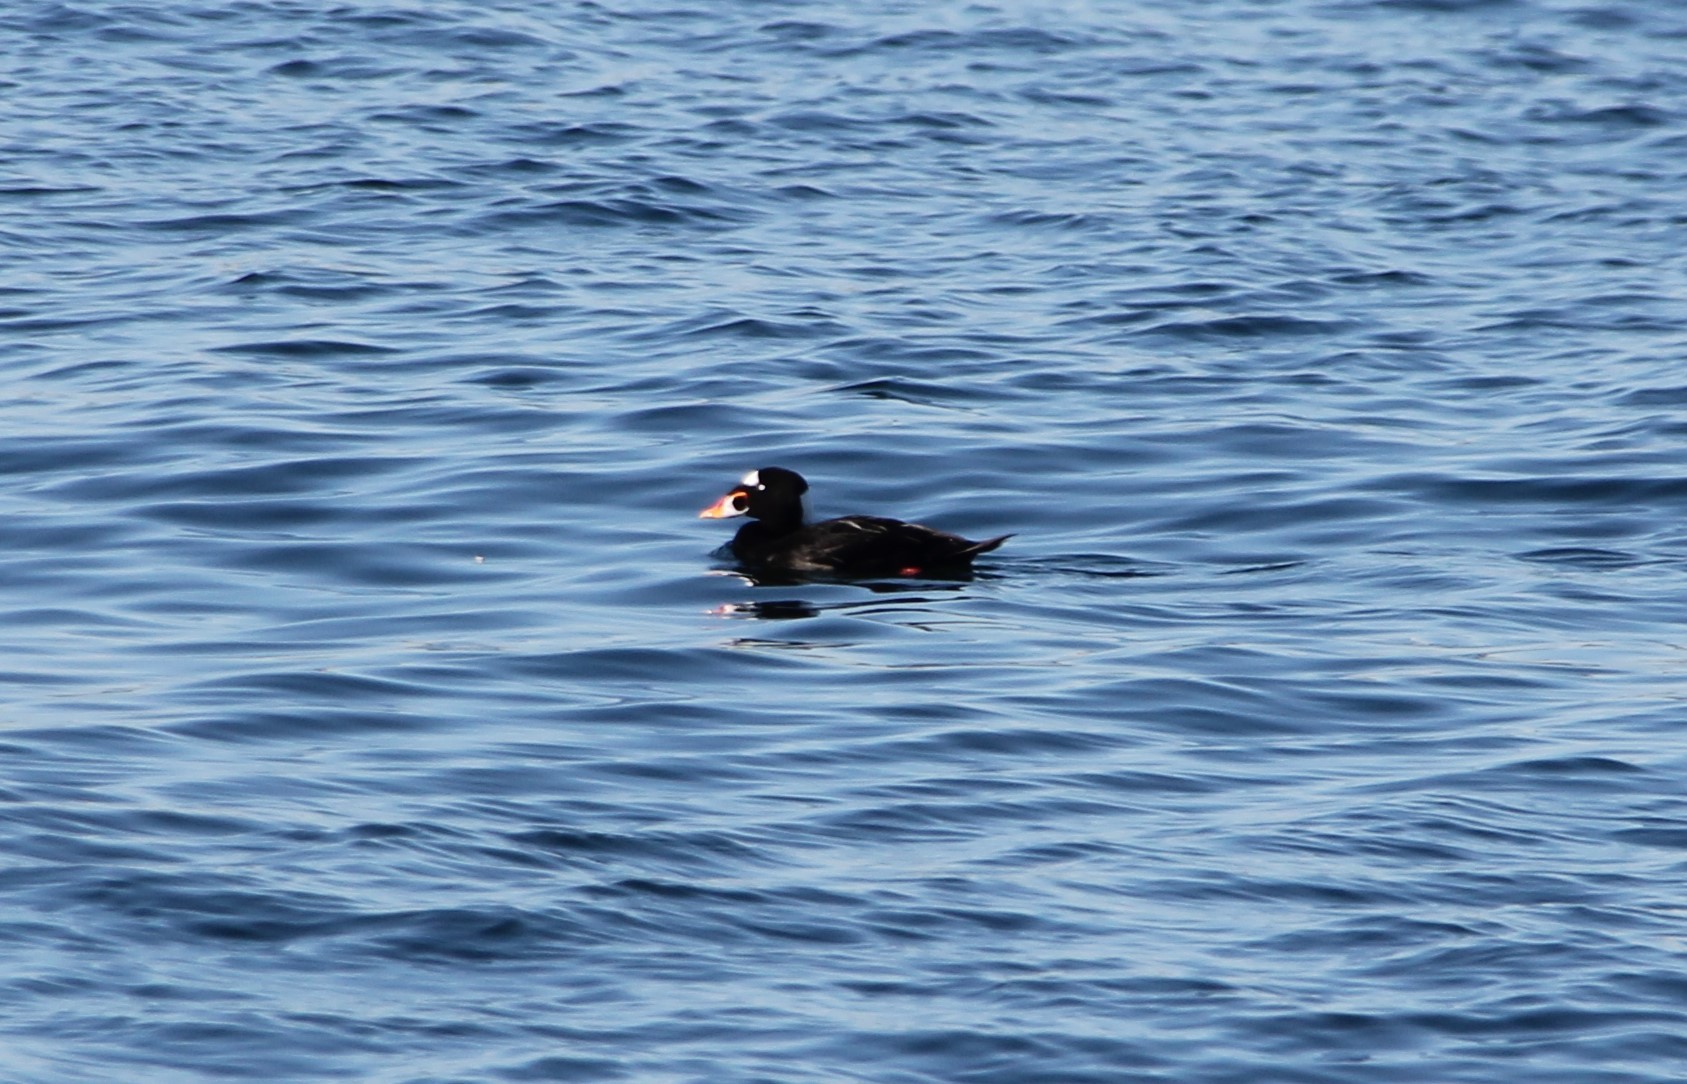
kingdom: Animalia
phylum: Chordata
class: Aves
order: Anseriformes
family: Anatidae
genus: Melanitta
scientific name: Melanitta perspicillata
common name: Surf scoter
